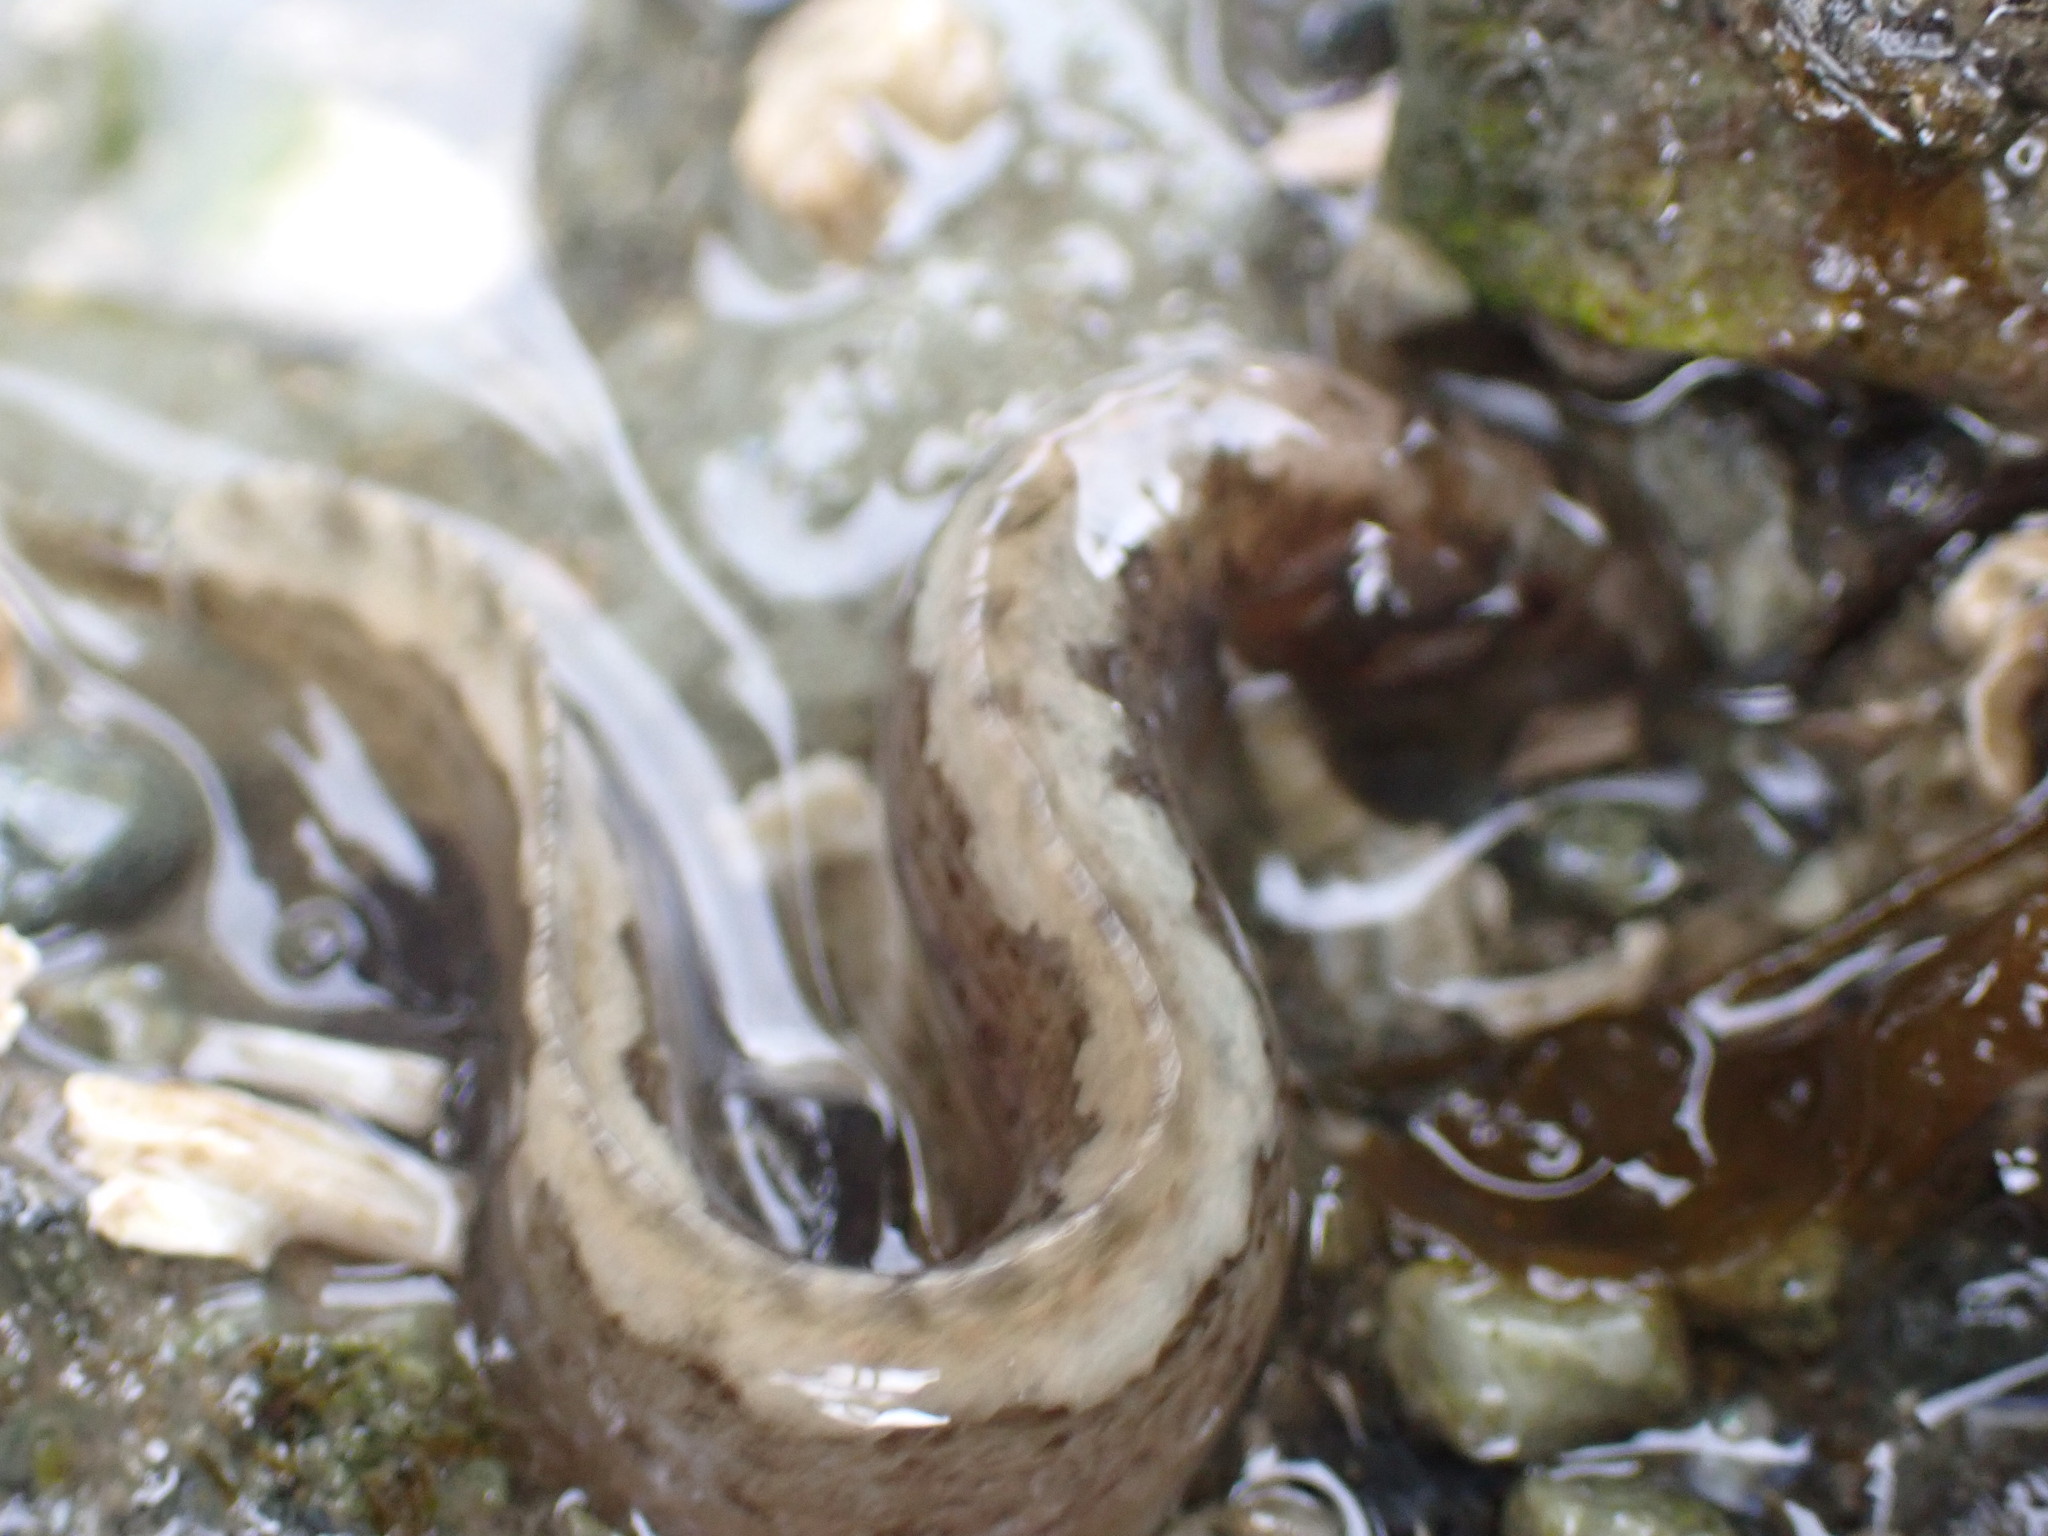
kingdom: Animalia
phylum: Chordata
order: Perciformes
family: Stichaeidae
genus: Anoplarchus
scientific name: Anoplarchus purpurescens
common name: High cockscomb
